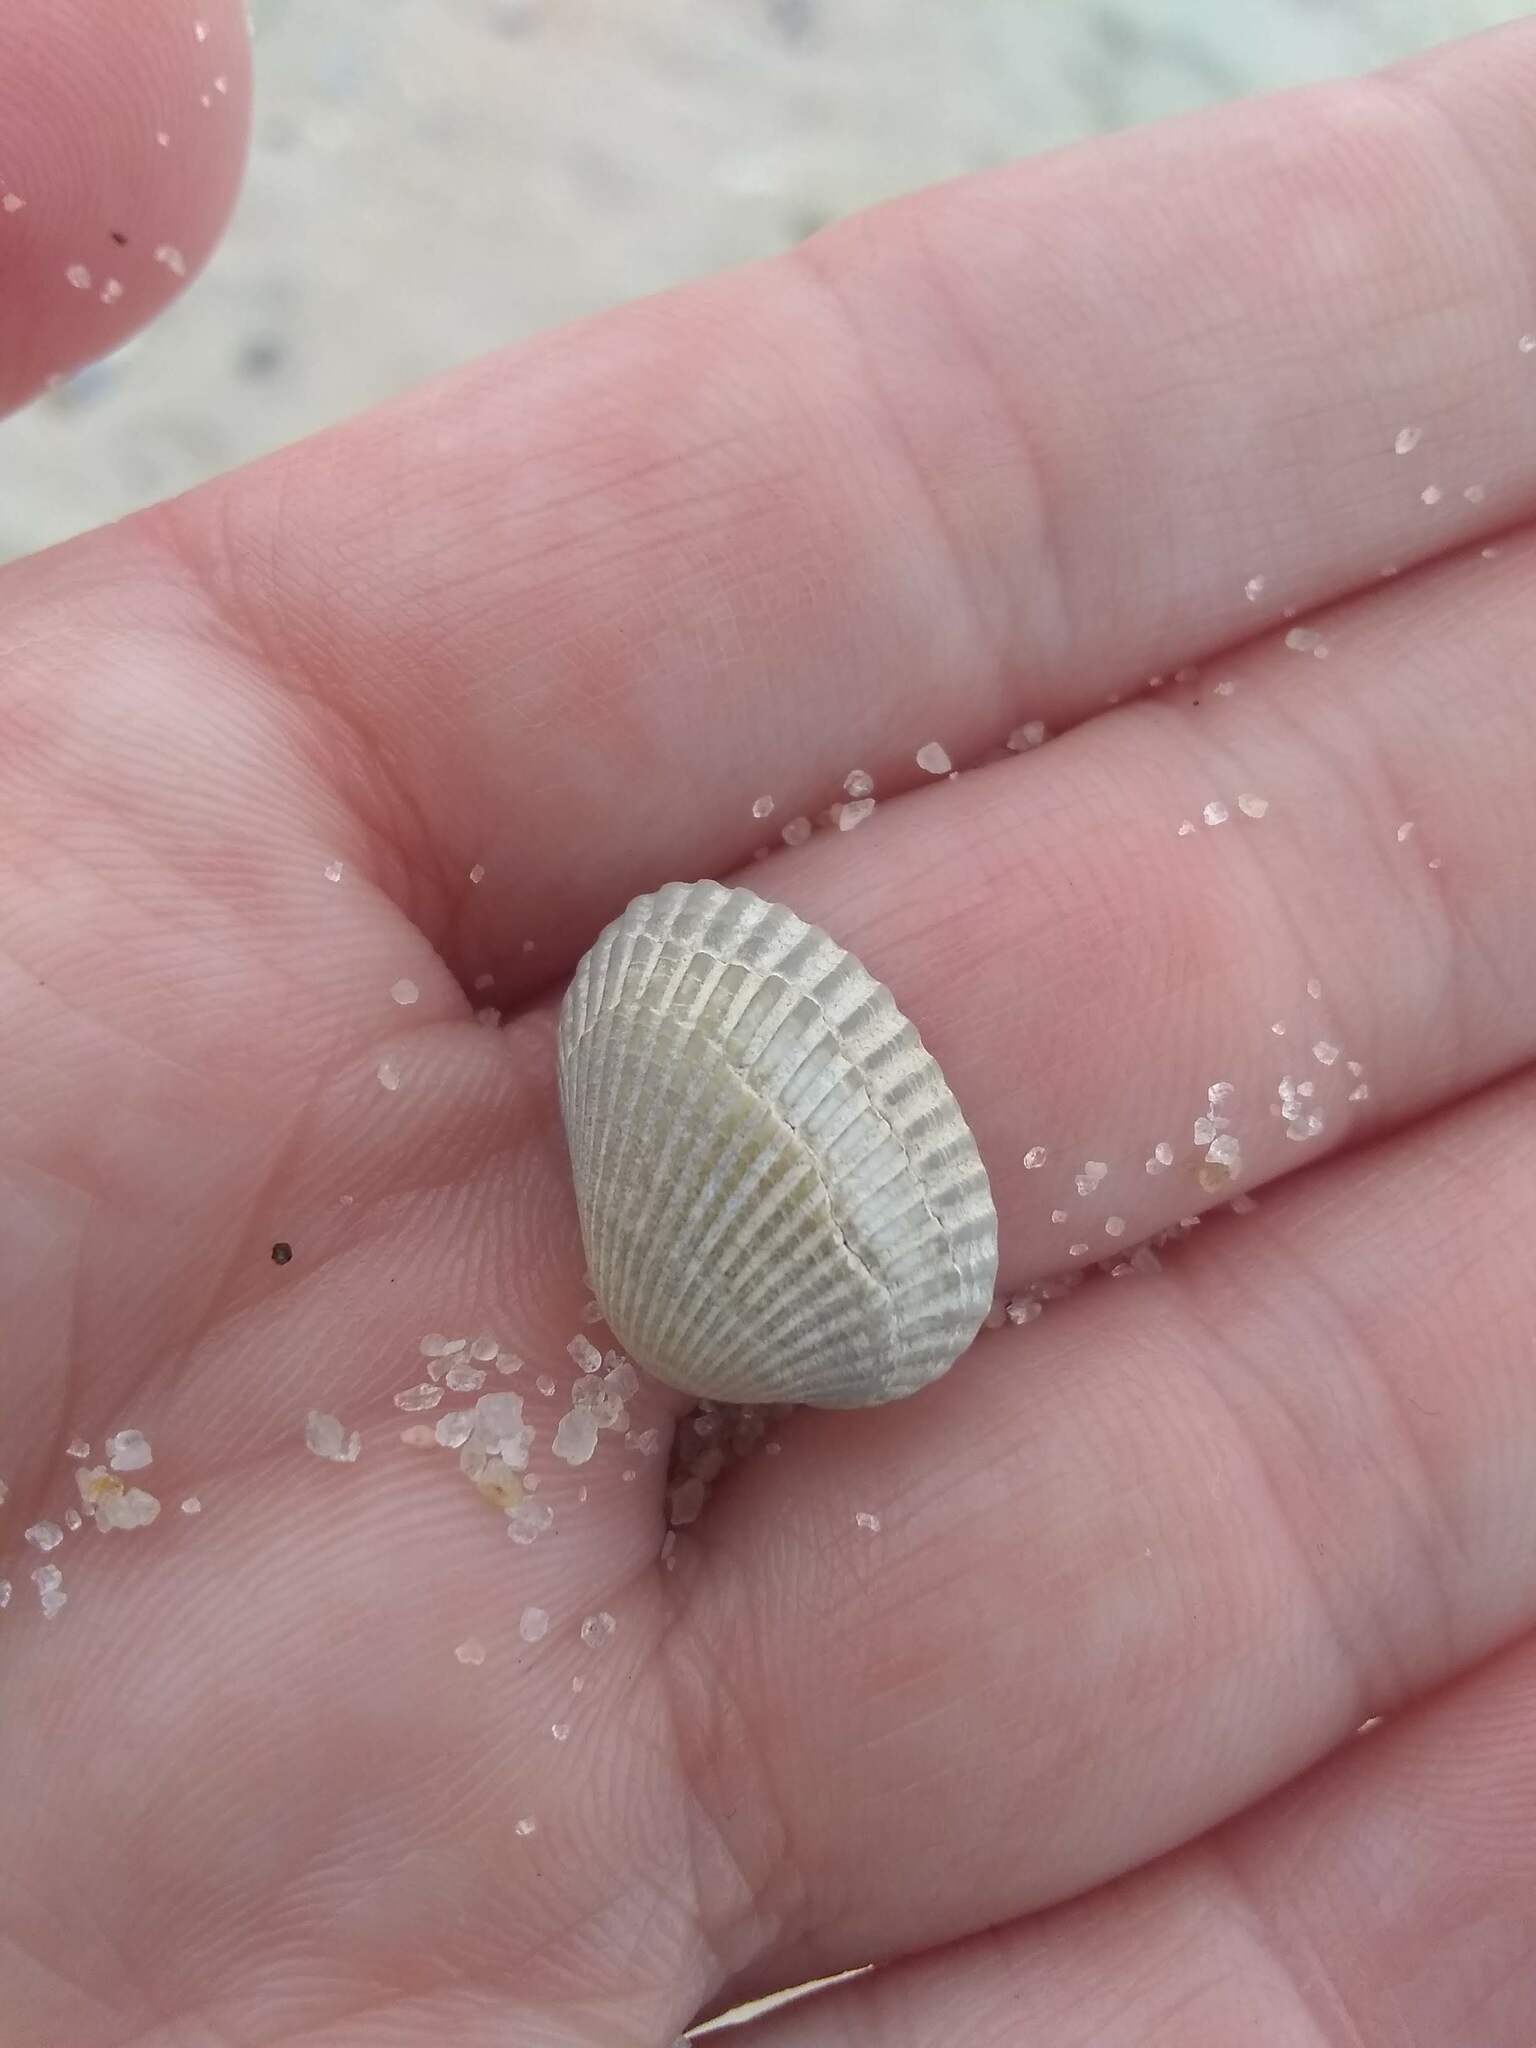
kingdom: Animalia
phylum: Mollusca
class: Bivalvia
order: Arcida
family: Arcidae
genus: Anadara
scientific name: Anadara transversa
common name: Transverse ark
